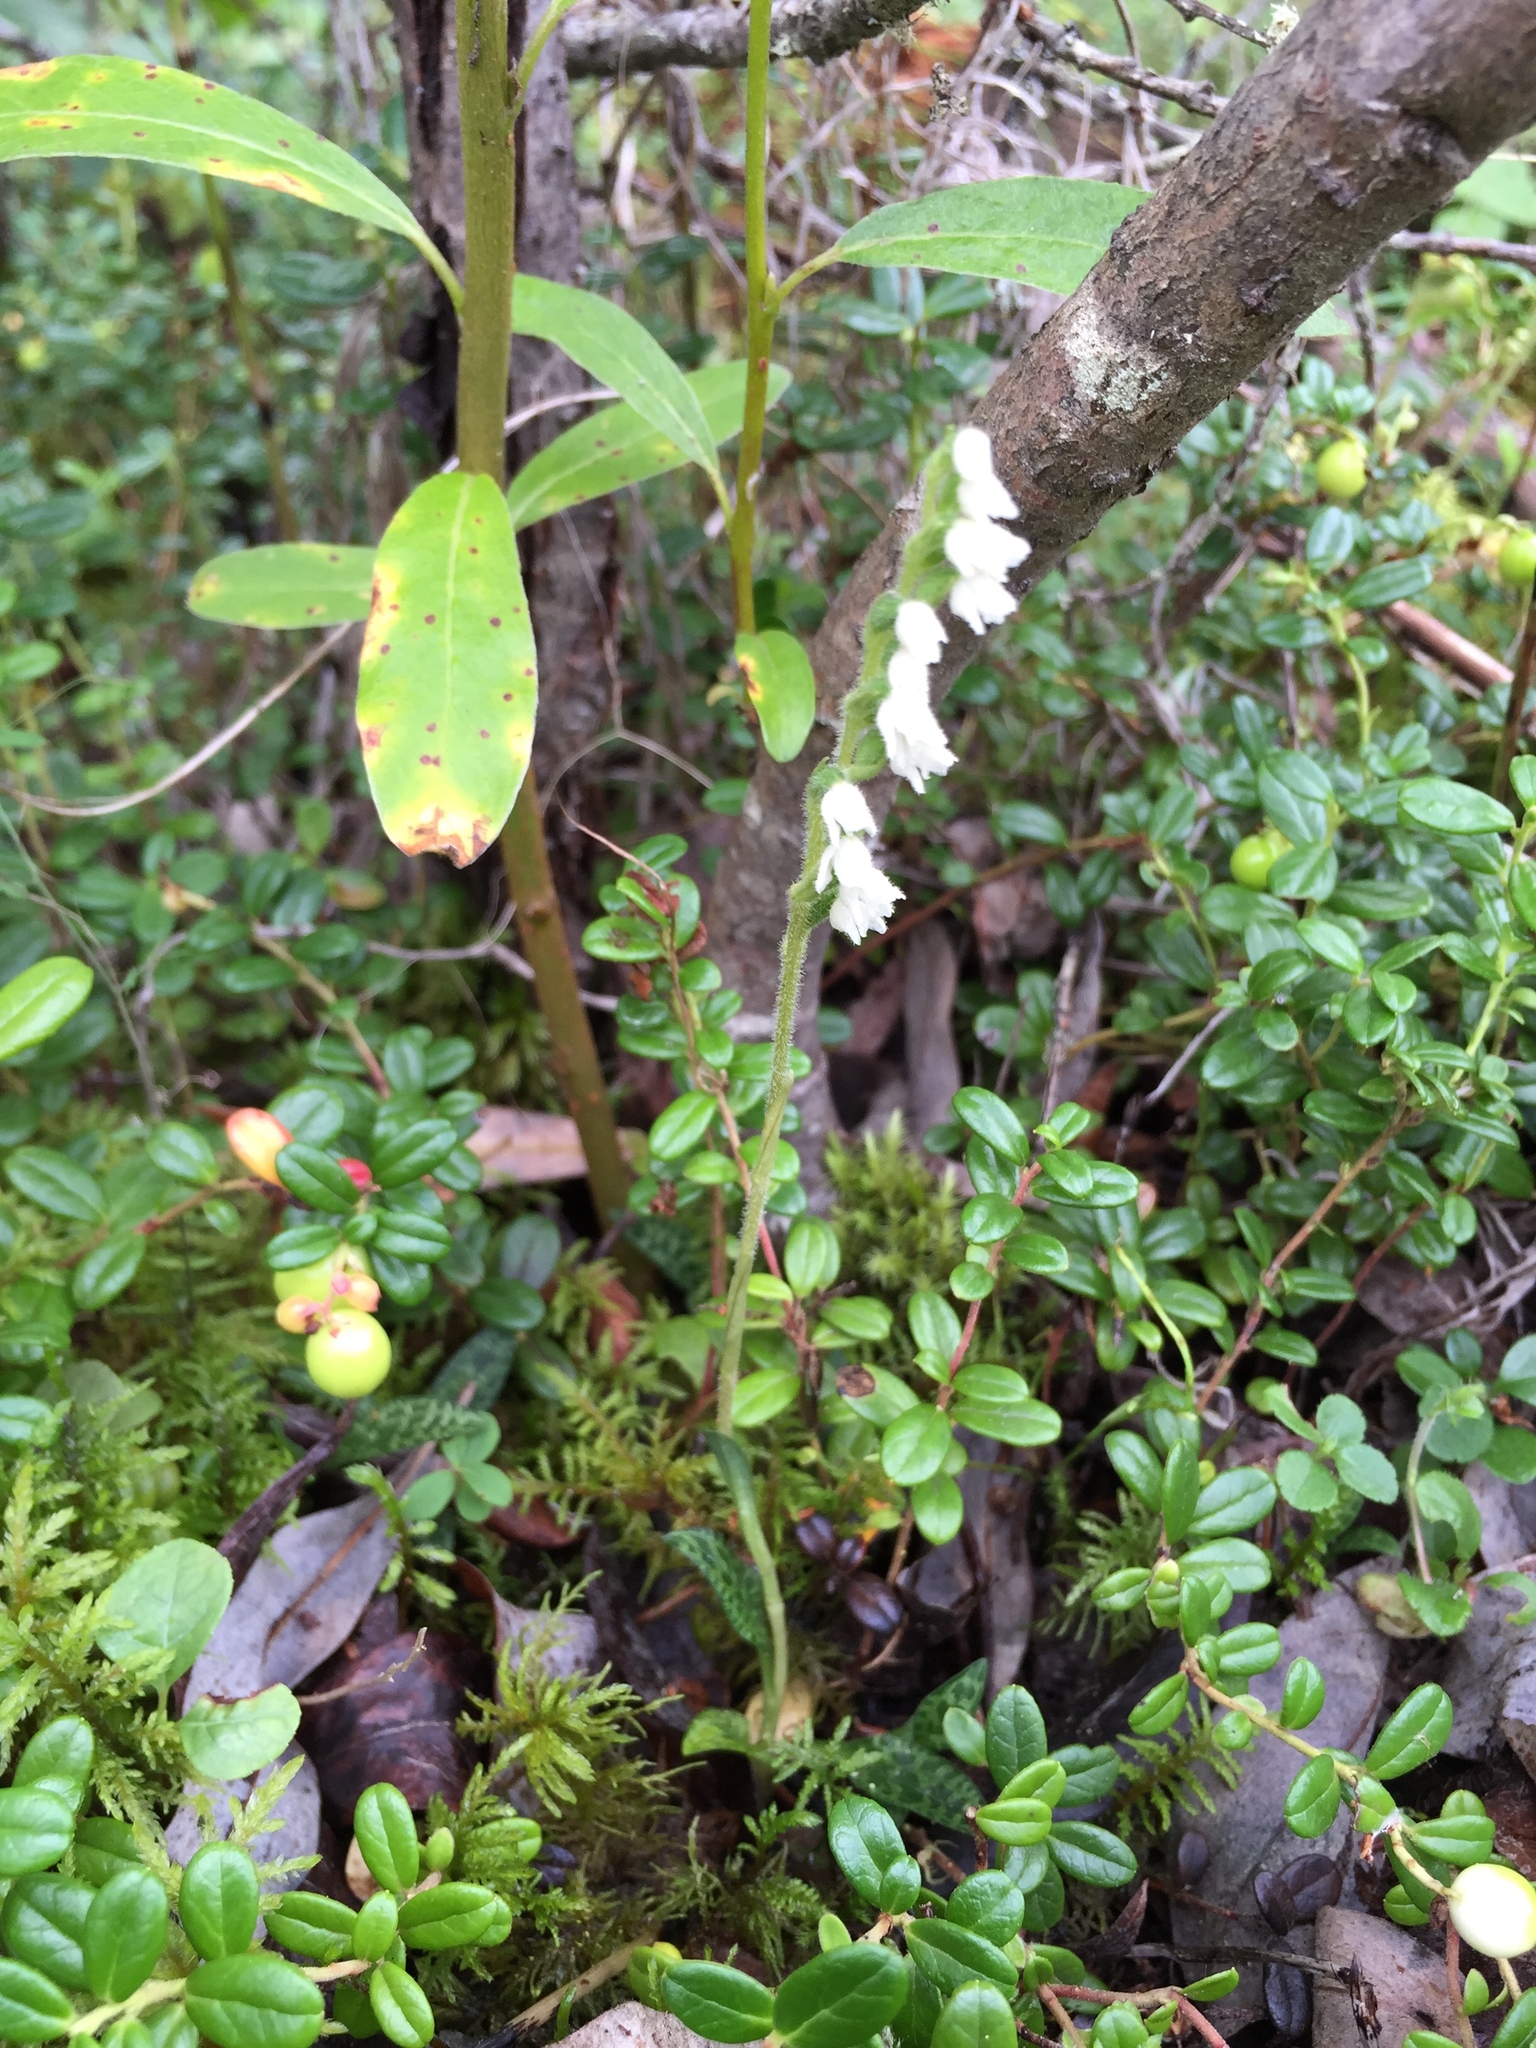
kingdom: Plantae
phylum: Tracheophyta
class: Liliopsida
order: Asparagales
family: Orchidaceae
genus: Goodyera
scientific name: Goodyera repens
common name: Creeping lady's-tresses
